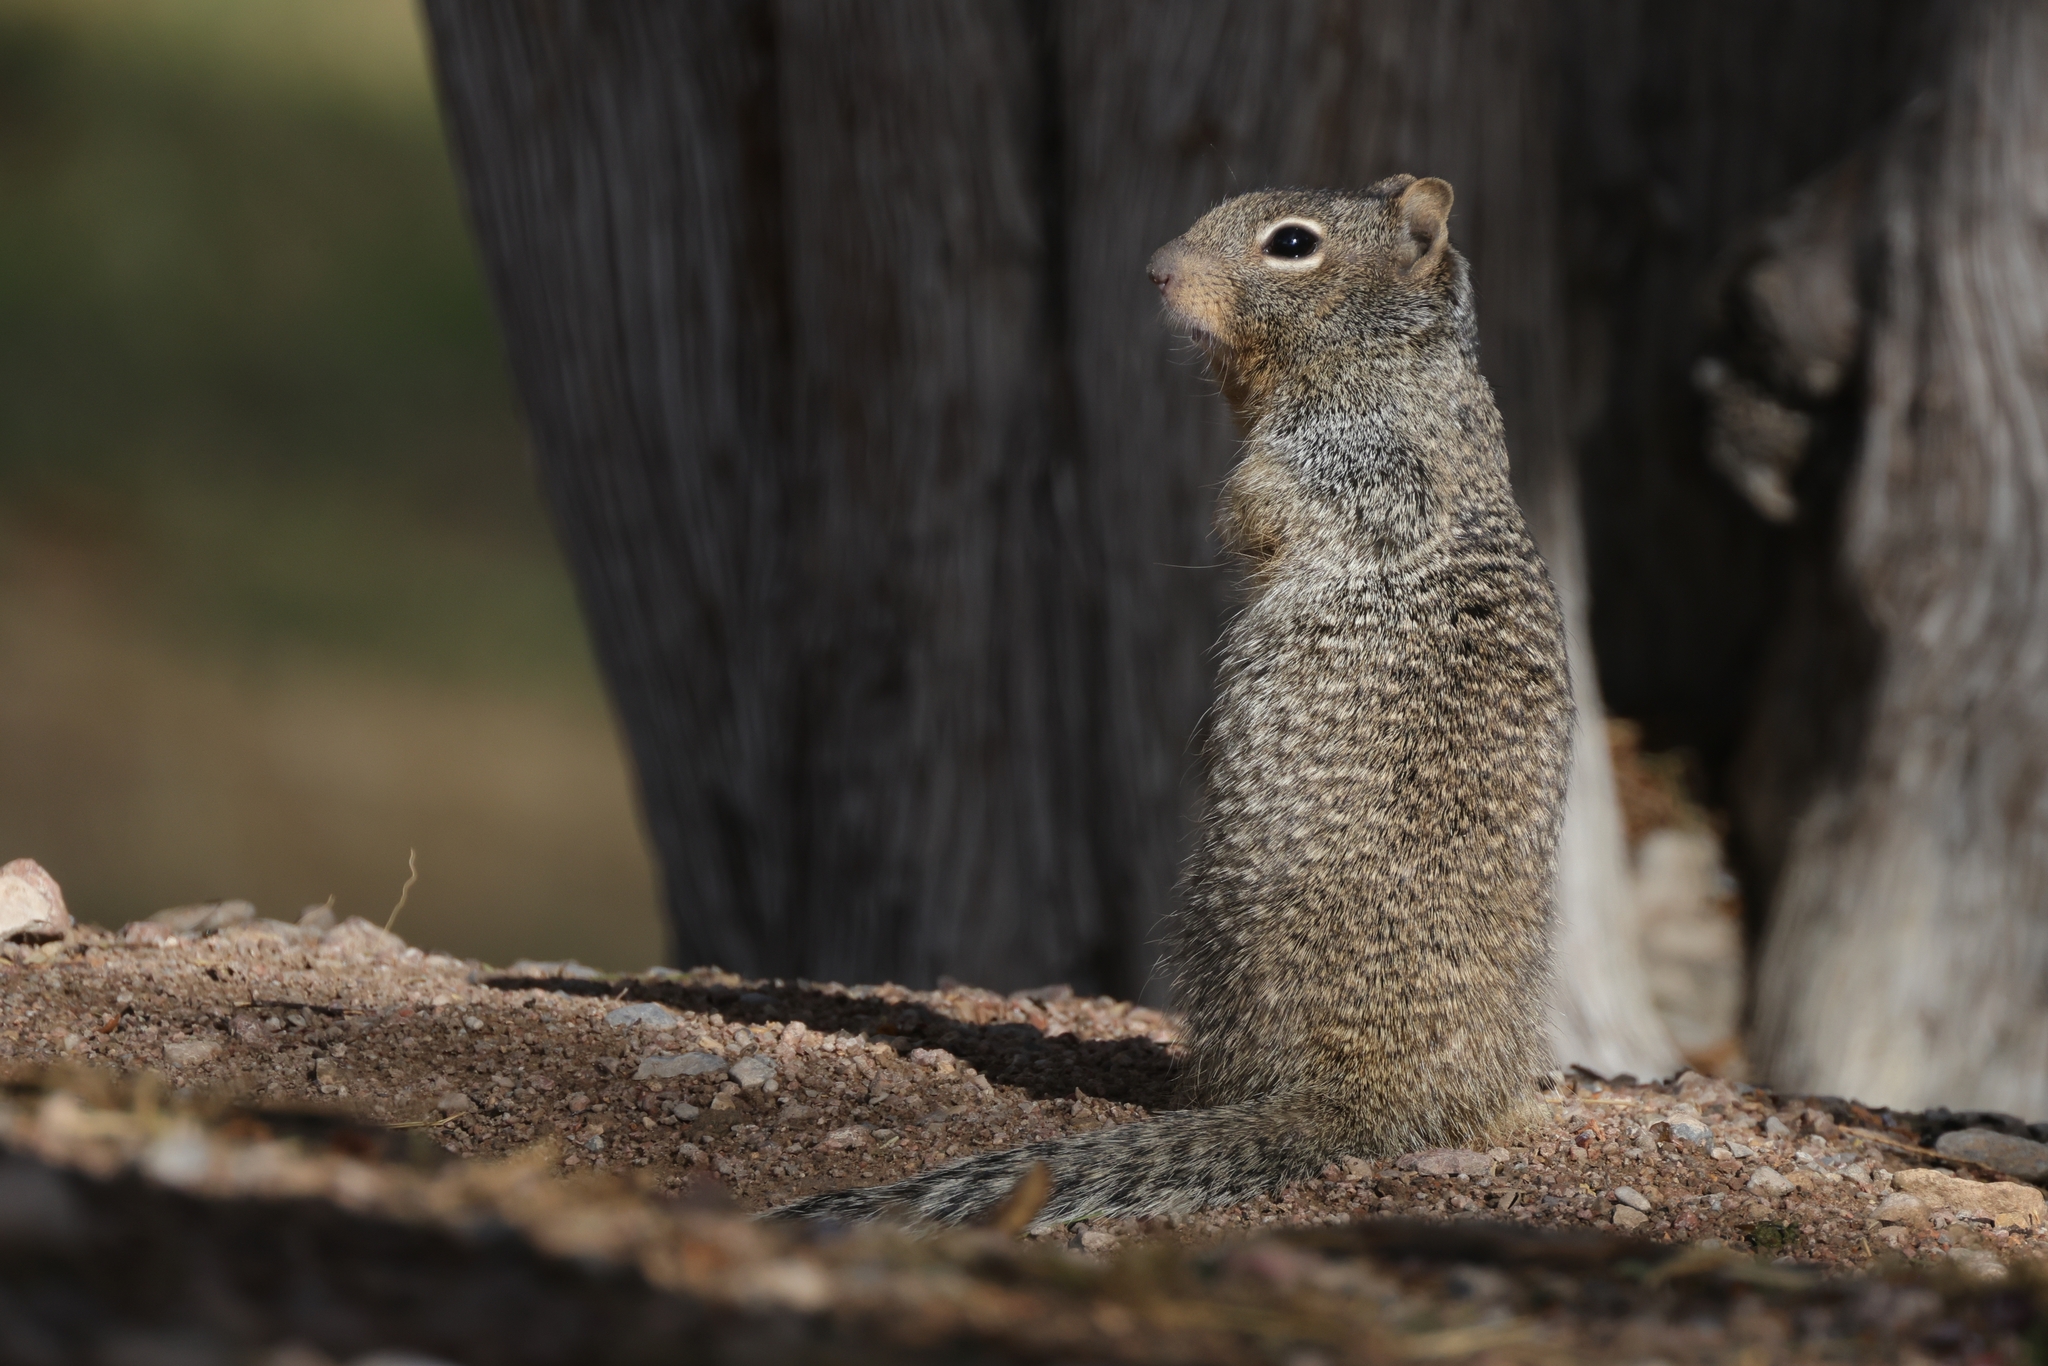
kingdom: Animalia
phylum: Chordata
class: Mammalia
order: Rodentia
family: Sciuridae
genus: Otospermophilus
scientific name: Otospermophilus variegatus
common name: Rock squirrel
